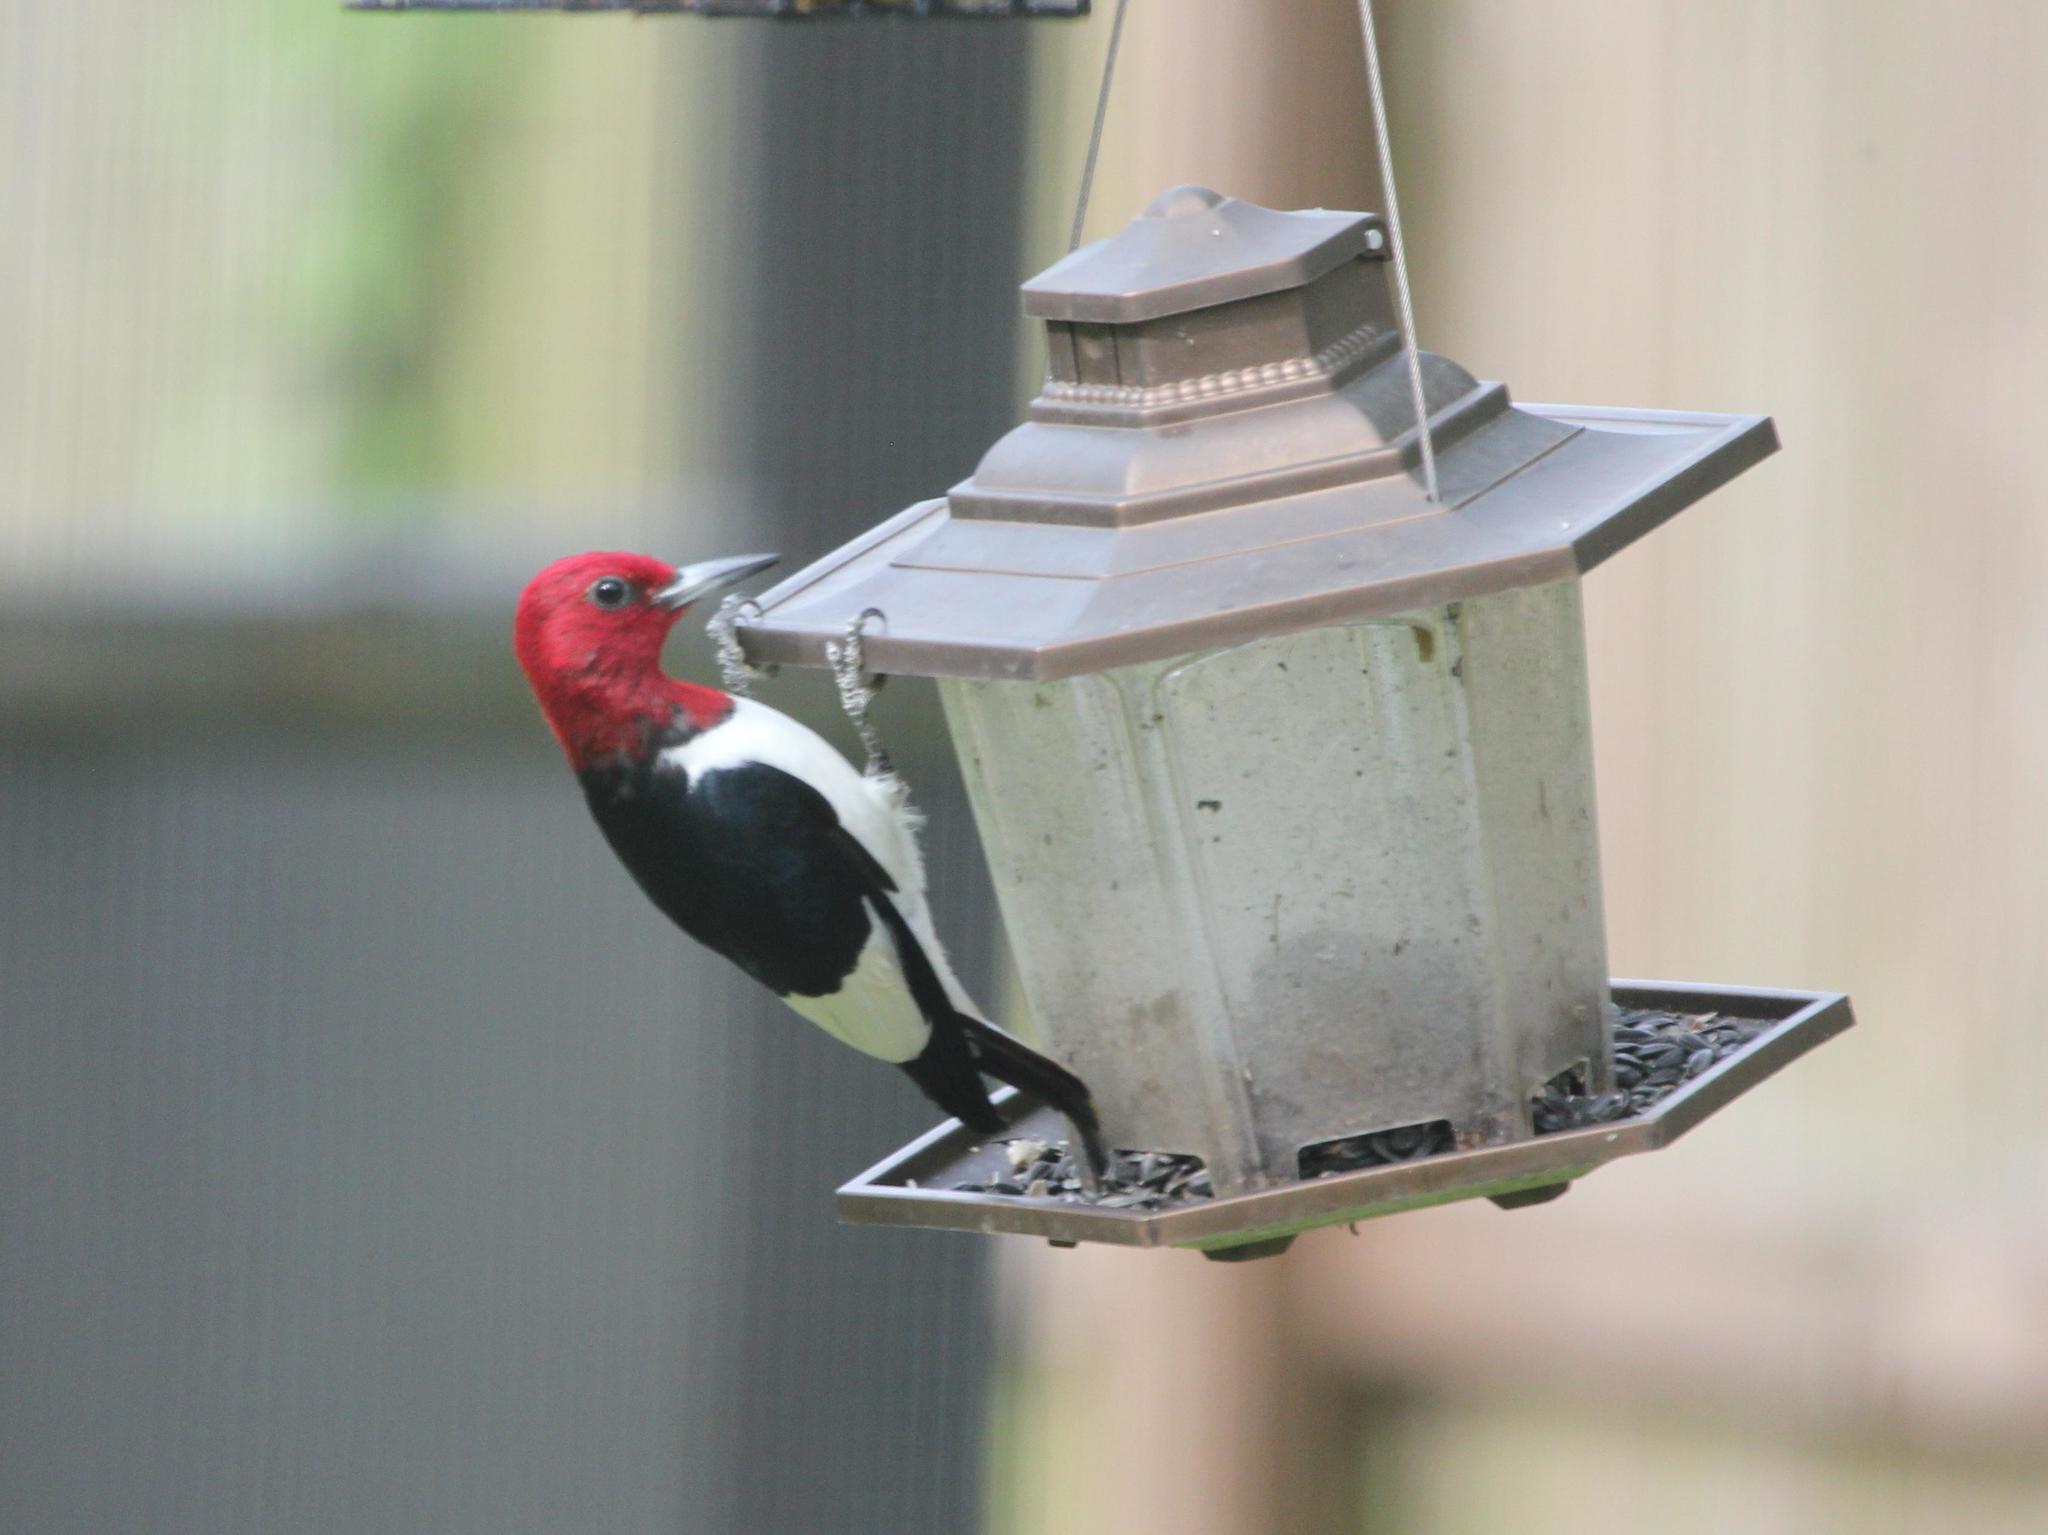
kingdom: Animalia
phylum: Chordata
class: Aves
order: Piciformes
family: Picidae
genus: Melanerpes
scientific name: Melanerpes erythrocephalus
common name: Red-headed woodpecker
